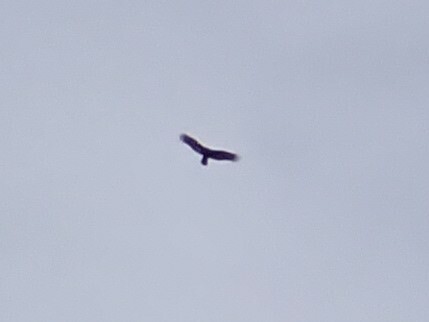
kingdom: Animalia
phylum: Chordata
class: Aves
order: Accipitriformes
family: Cathartidae
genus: Cathartes
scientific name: Cathartes aura
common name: Turkey vulture
